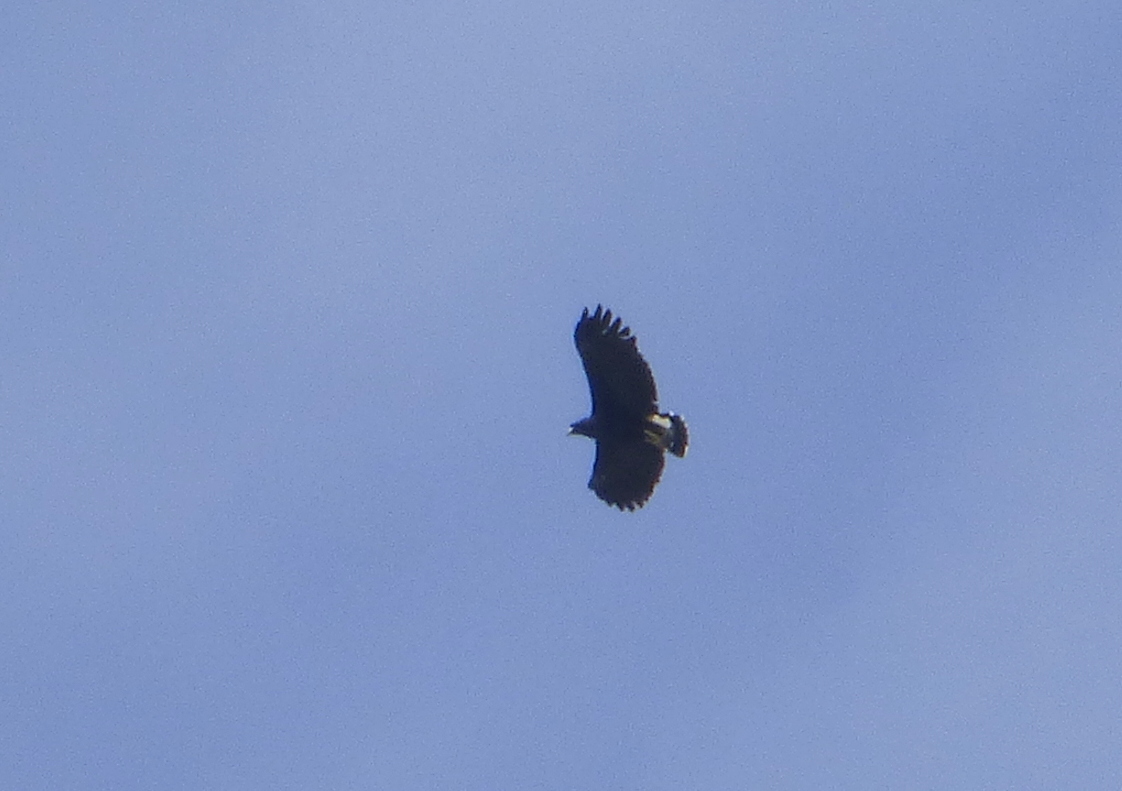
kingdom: Animalia
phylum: Chordata
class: Aves
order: Accipitriformes
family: Accipitridae
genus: Buteogallus
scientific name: Buteogallus urubitinga
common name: Great black hawk
